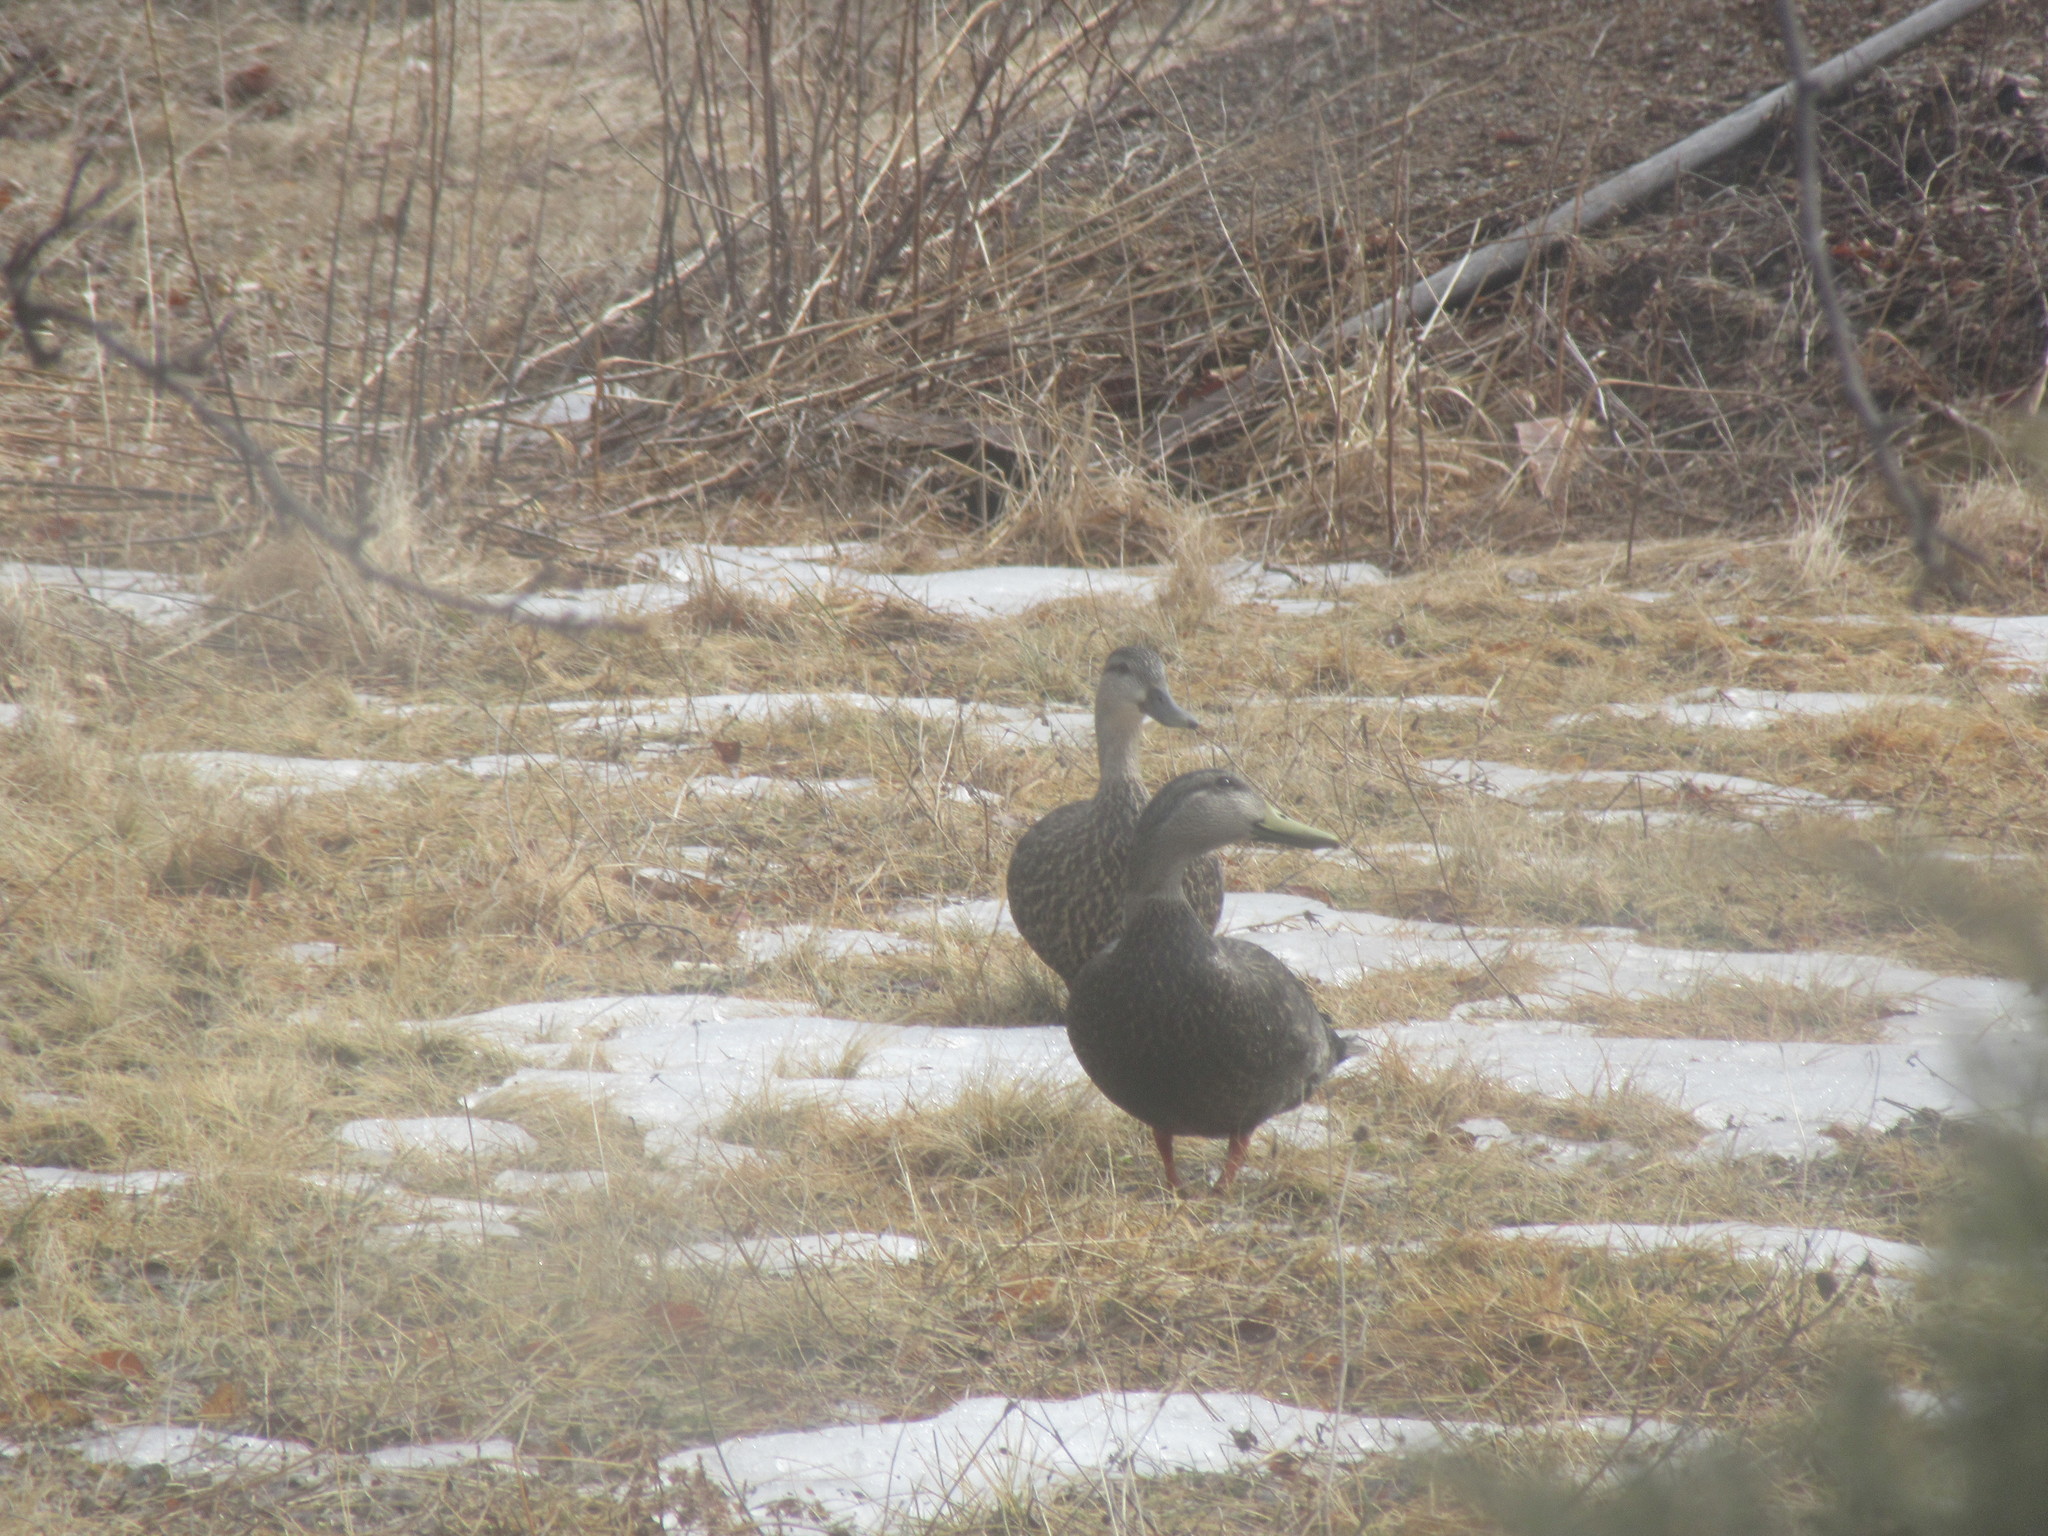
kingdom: Animalia
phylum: Chordata
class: Aves
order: Anseriformes
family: Anatidae
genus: Anas
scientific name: Anas rubripes
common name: American black duck
